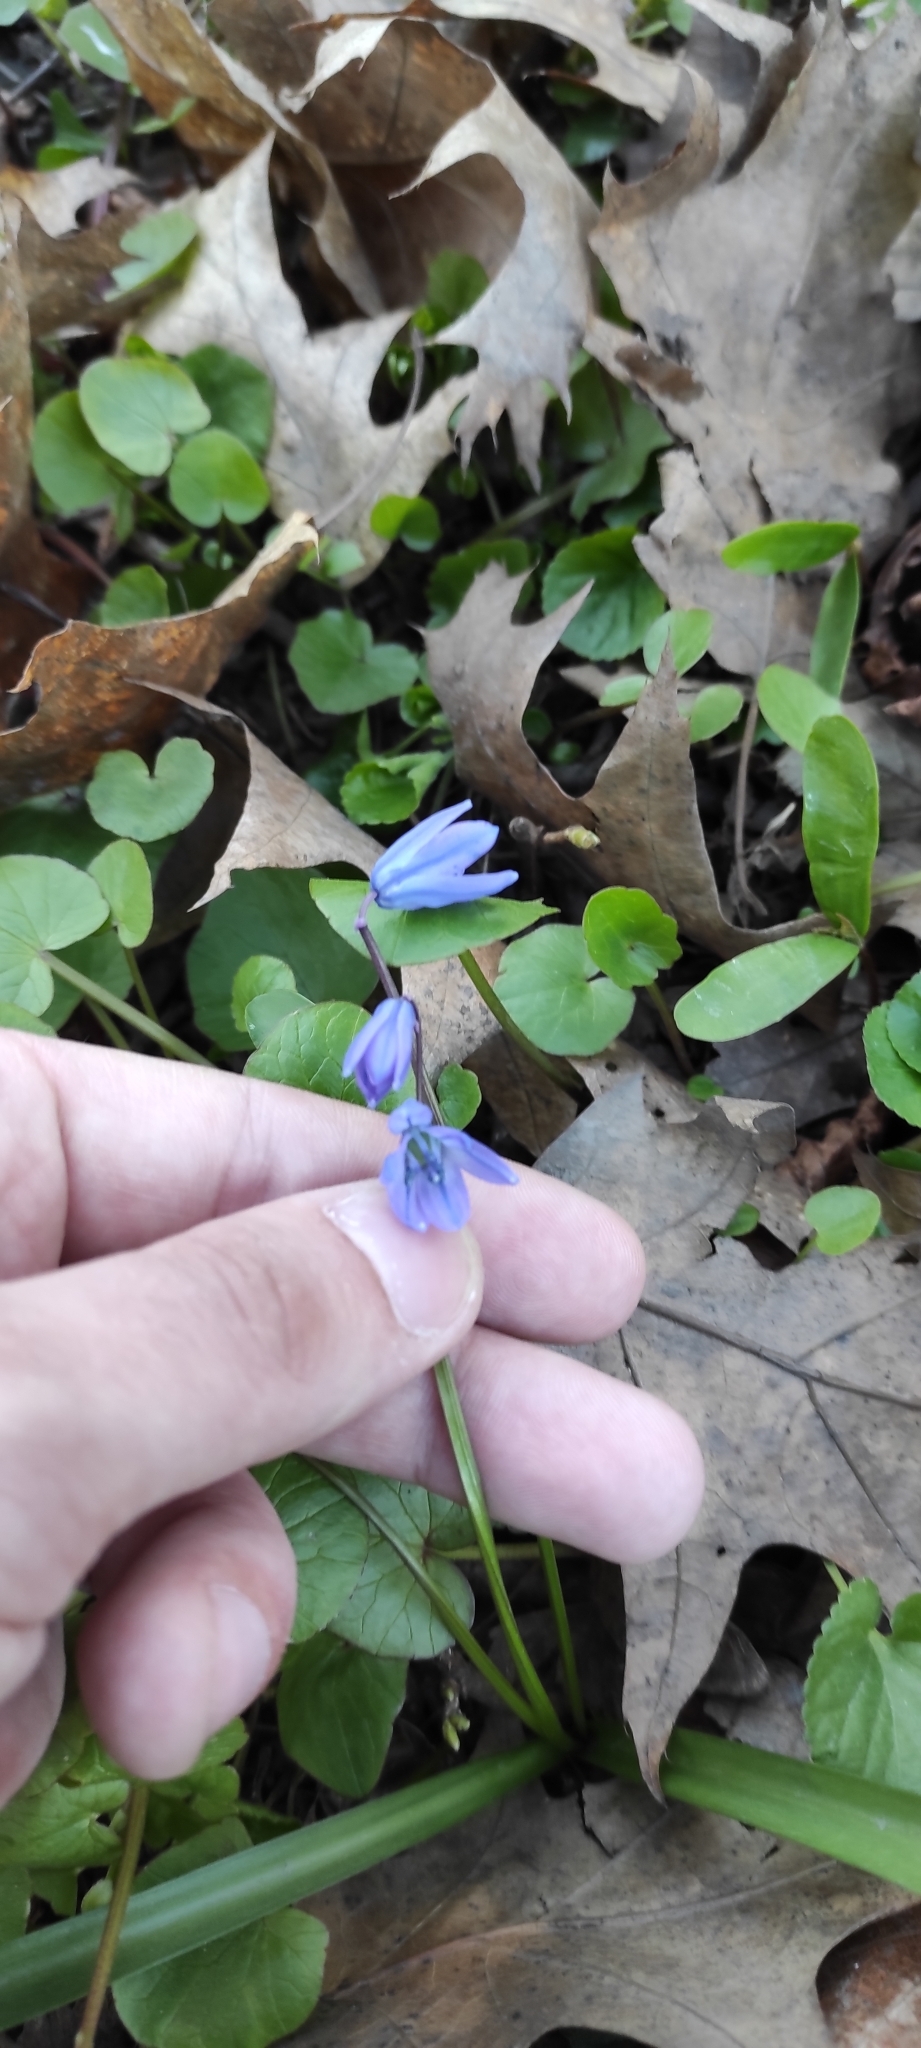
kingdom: Plantae
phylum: Tracheophyta
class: Liliopsida
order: Asparagales
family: Asparagaceae
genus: Scilla
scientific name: Scilla siberica
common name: Siberian squill
